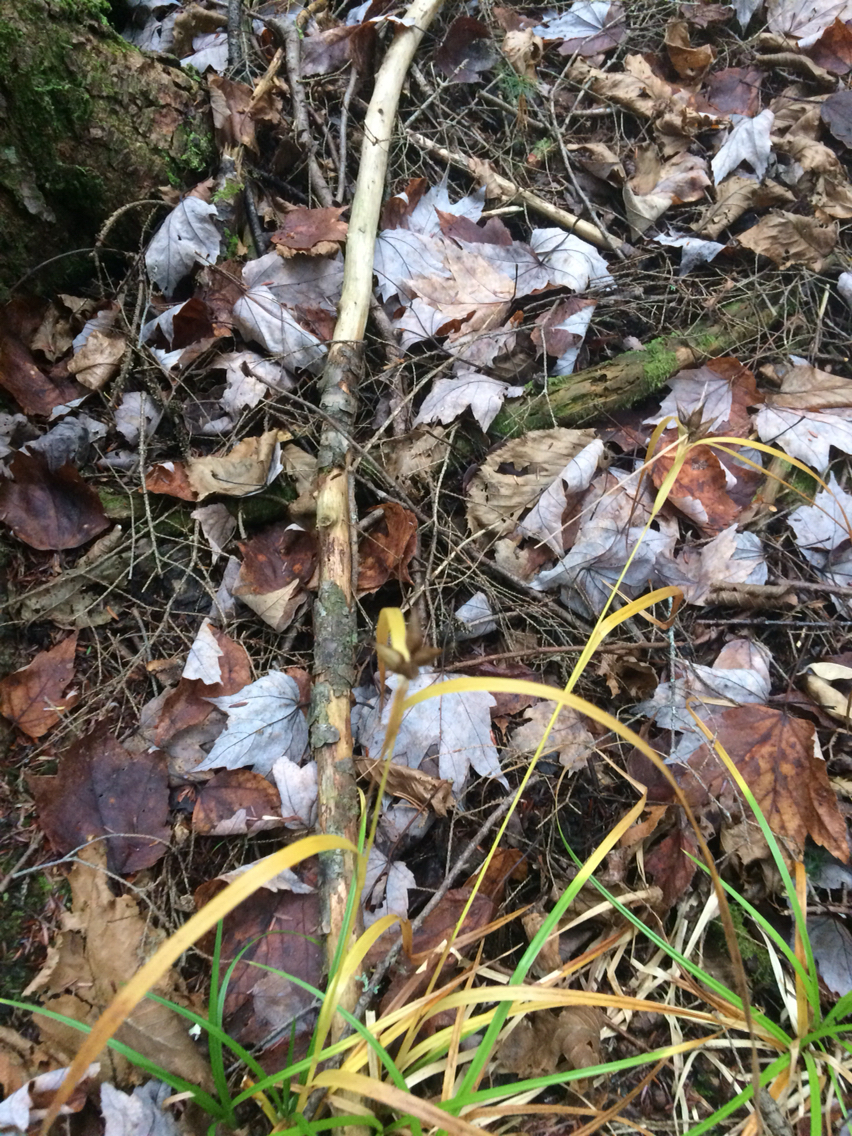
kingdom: Plantae
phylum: Tracheophyta
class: Liliopsida
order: Poales
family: Cyperaceae
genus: Carex
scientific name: Carex intumescens
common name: Greater bladder sedge
